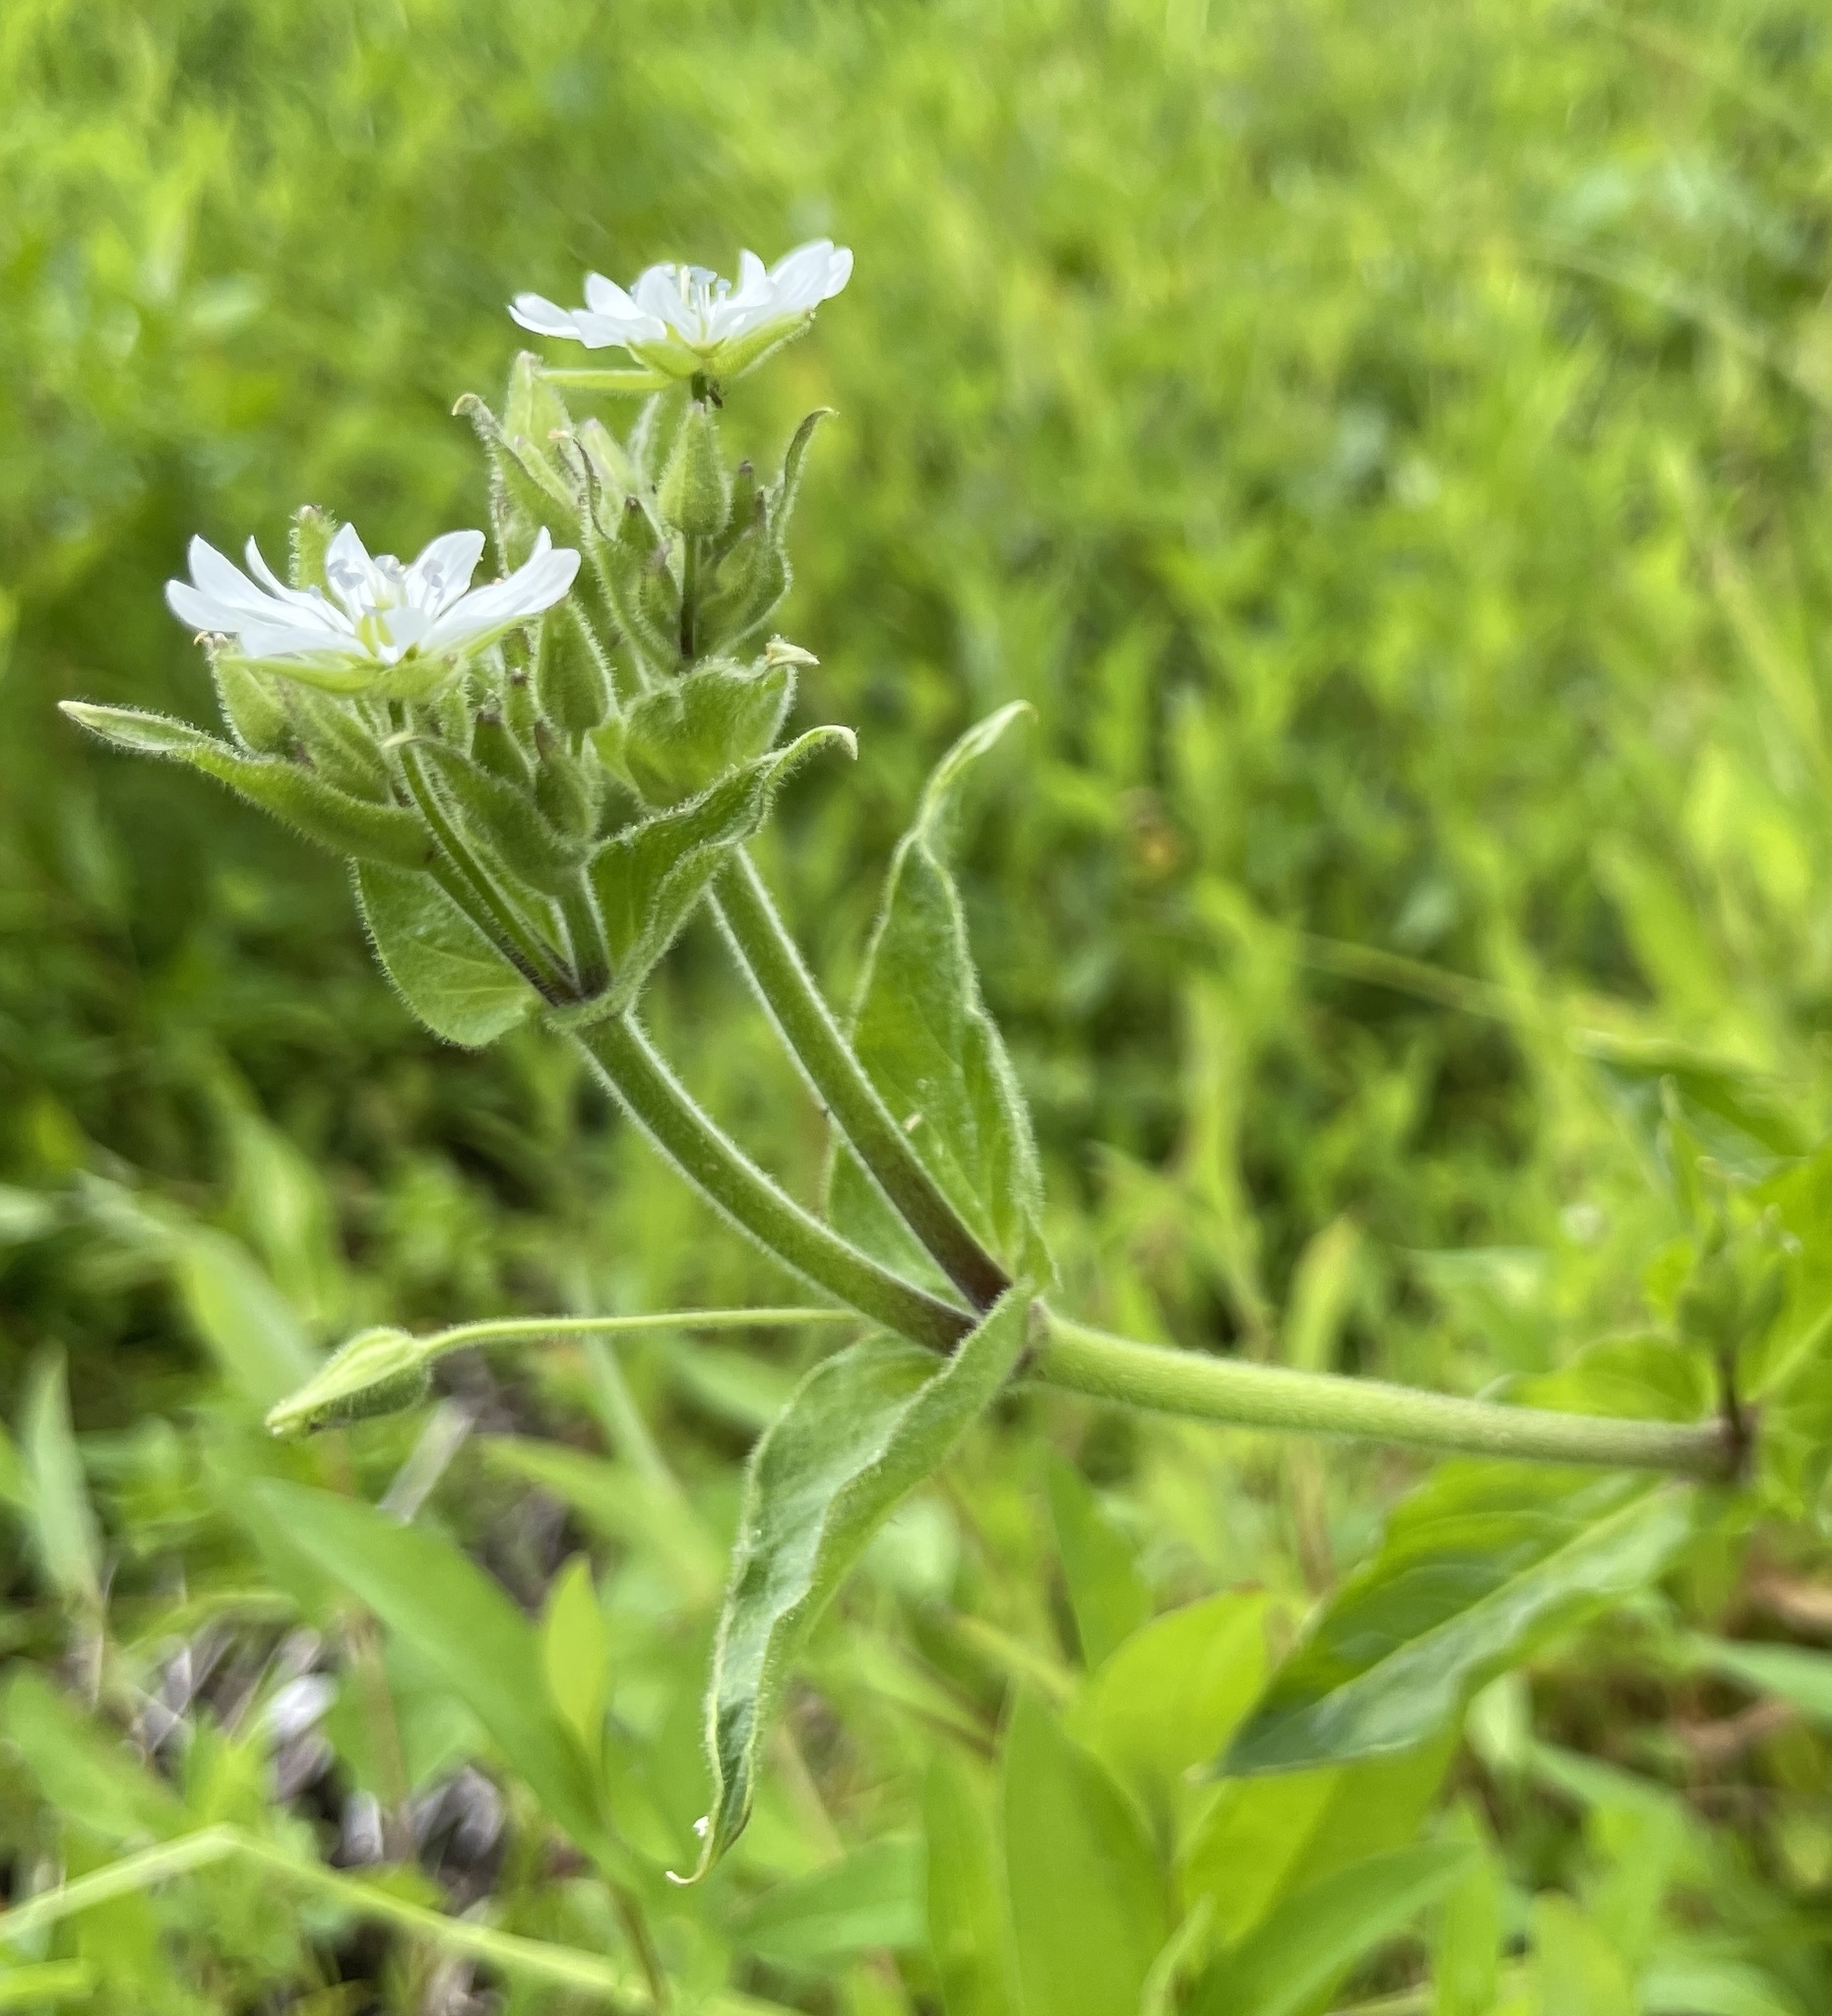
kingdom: Plantae
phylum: Tracheophyta
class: Magnoliopsida
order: Caryophyllales
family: Caryophyllaceae
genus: Stellaria
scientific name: Stellaria aquatica
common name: Water chickweed
